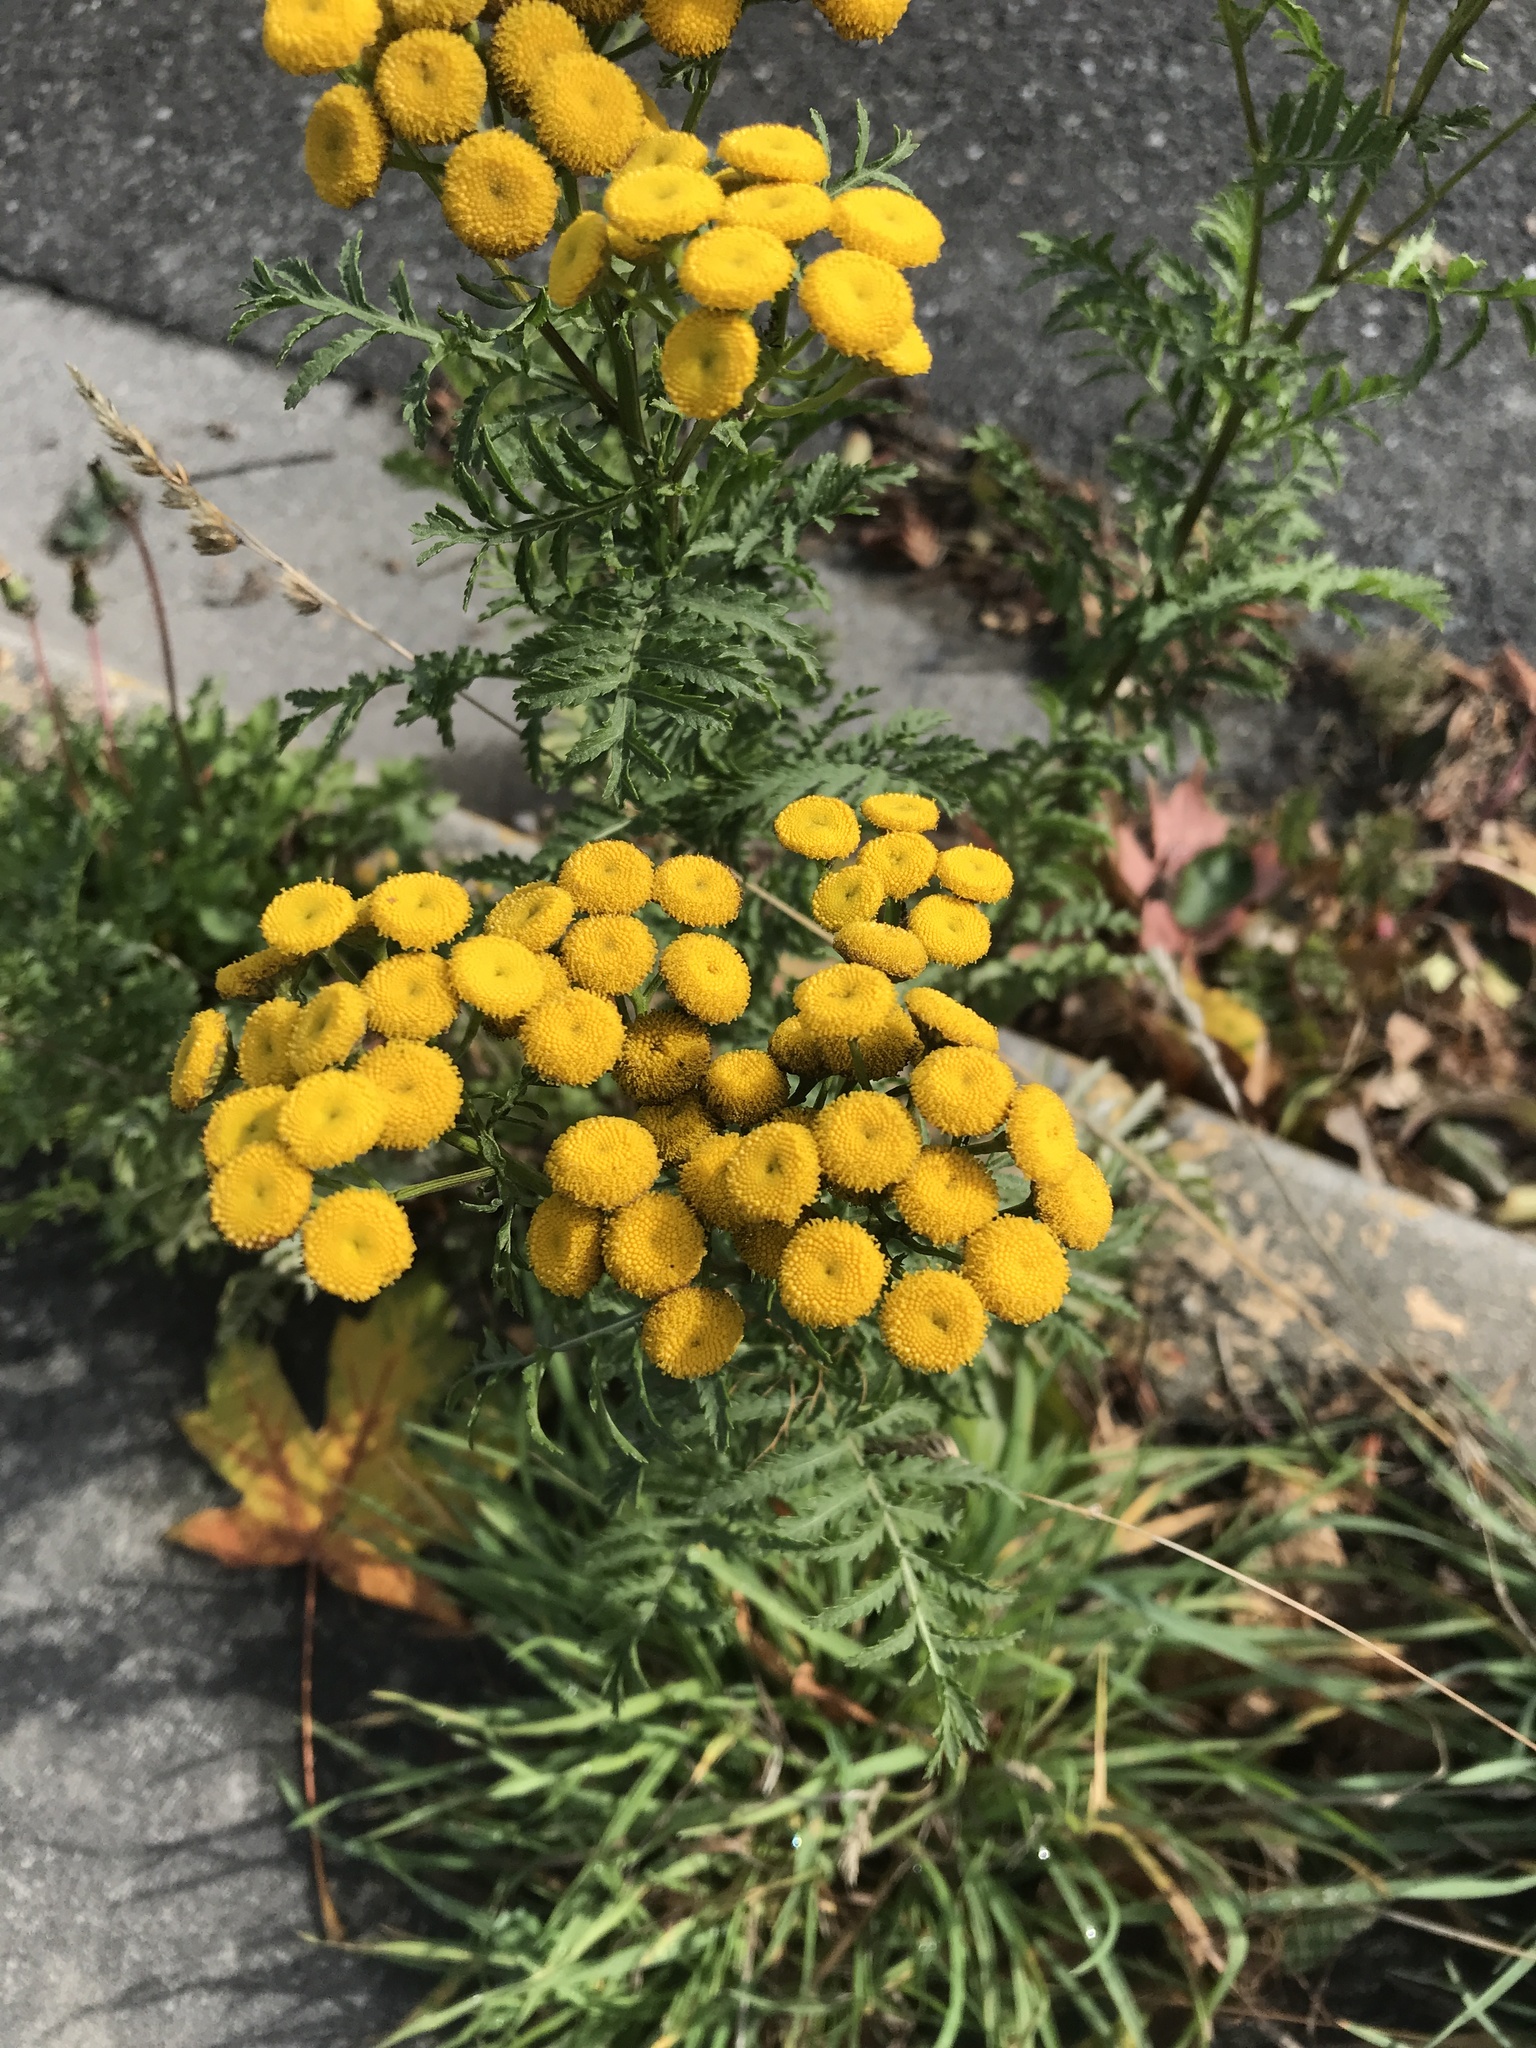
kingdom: Plantae
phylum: Tracheophyta
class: Magnoliopsida
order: Asterales
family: Asteraceae
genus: Tanacetum
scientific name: Tanacetum vulgare
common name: Common tansy
